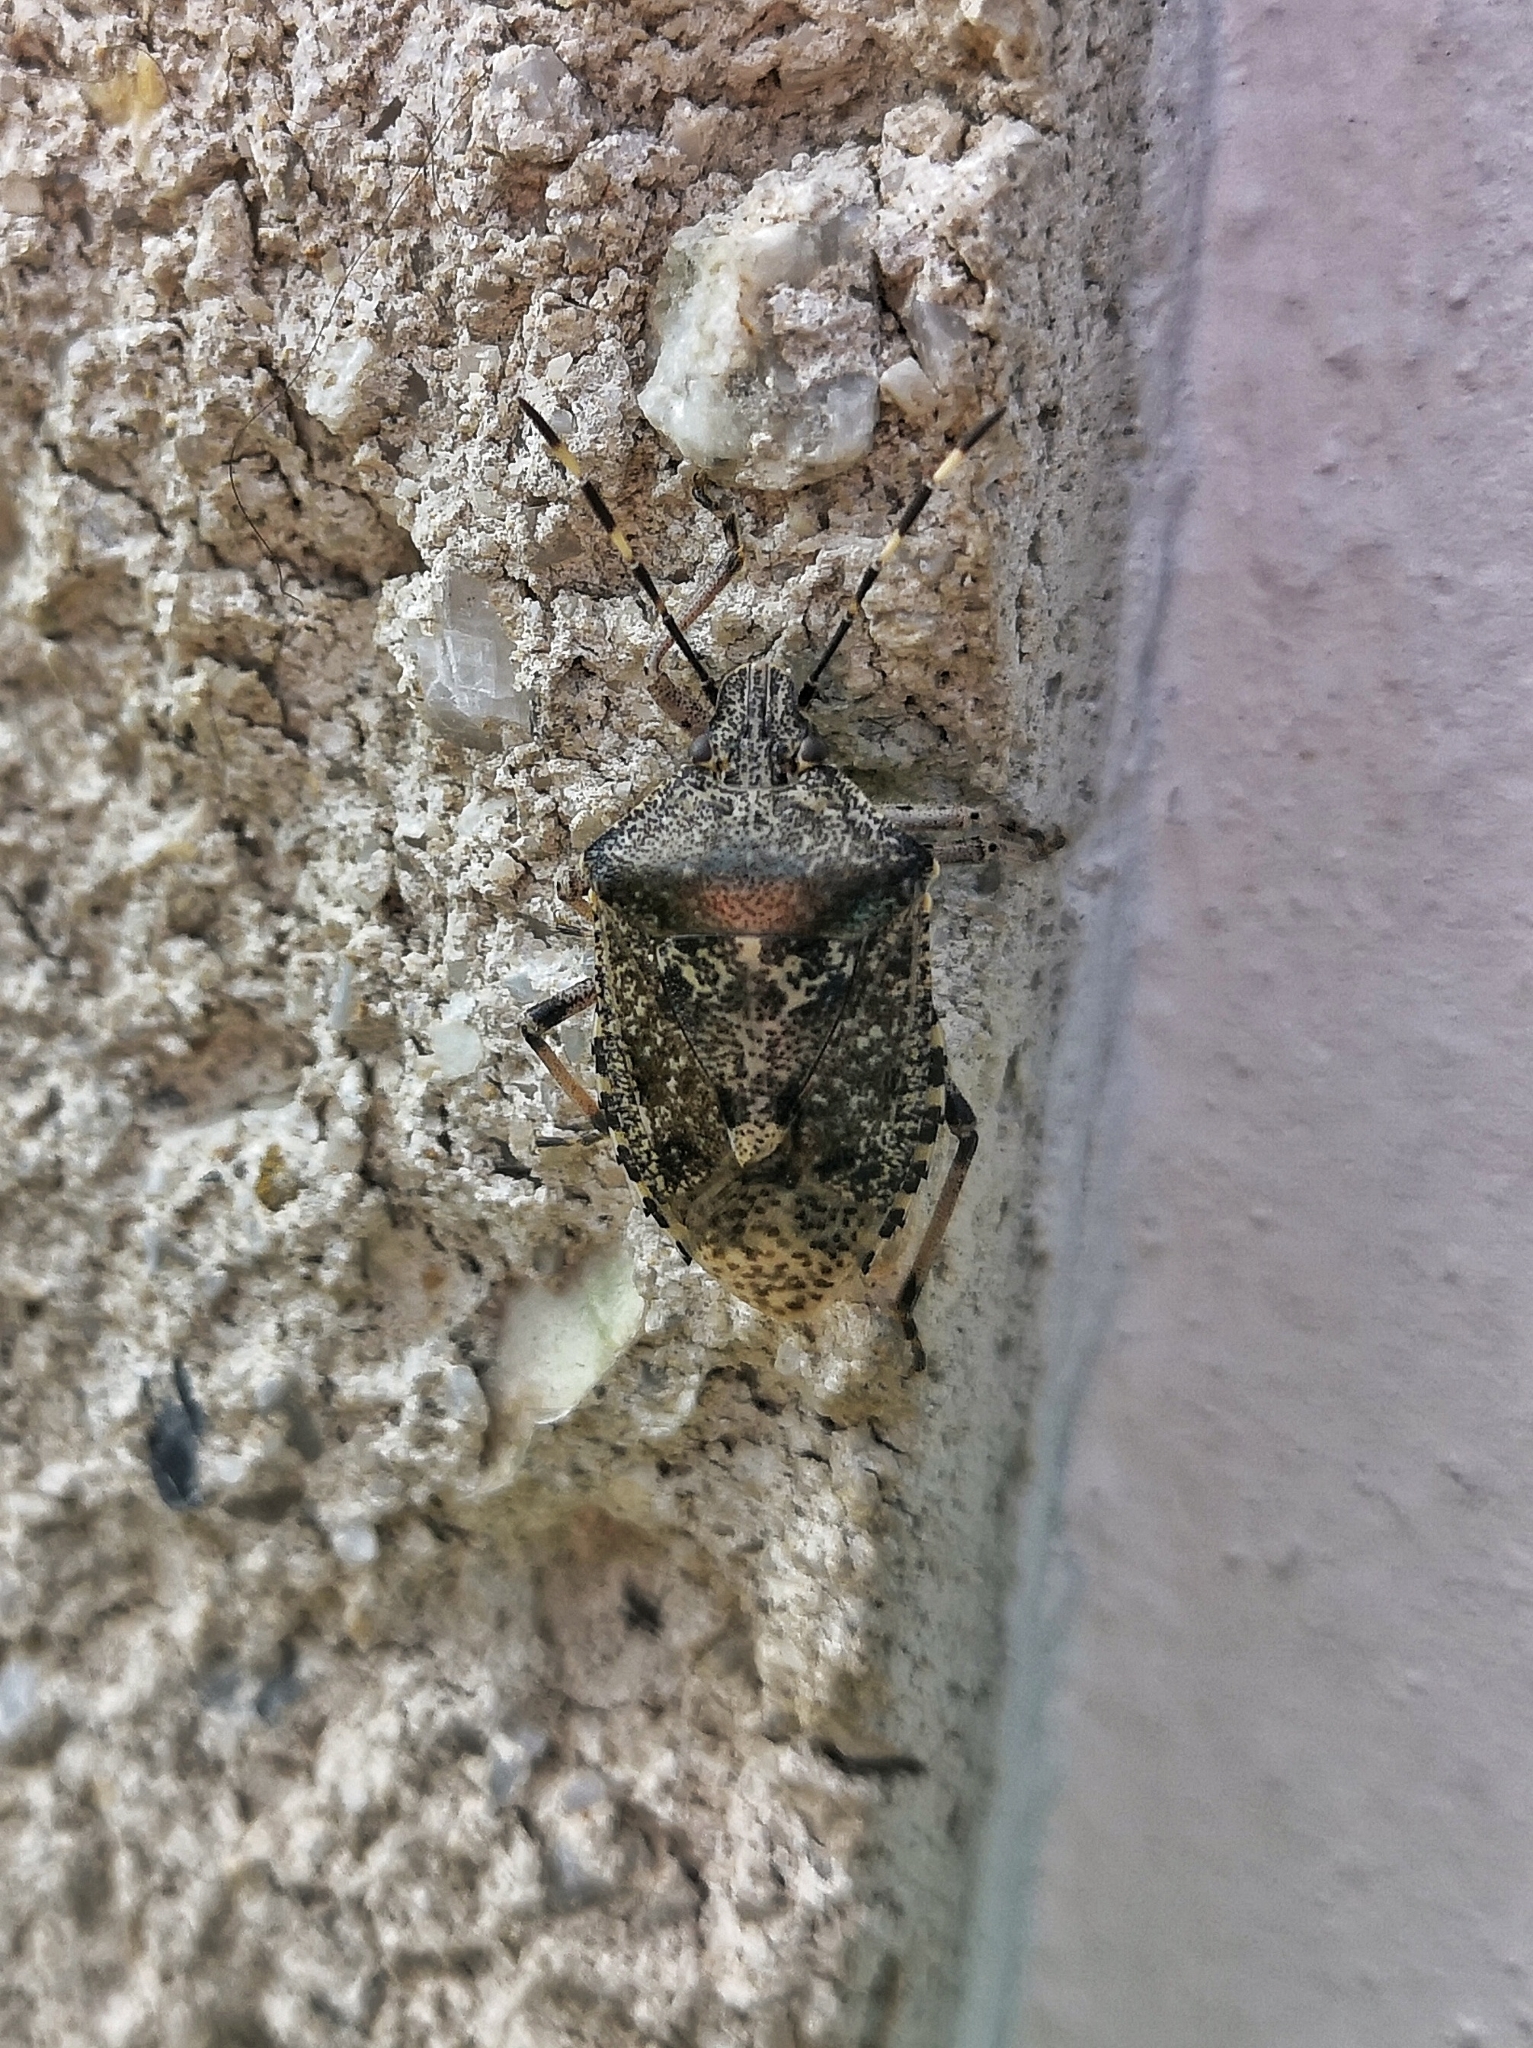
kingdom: Animalia
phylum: Arthropoda
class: Insecta
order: Hemiptera
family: Pentatomidae
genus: Rhaphigaster
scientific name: Rhaphigaster nebulosa
